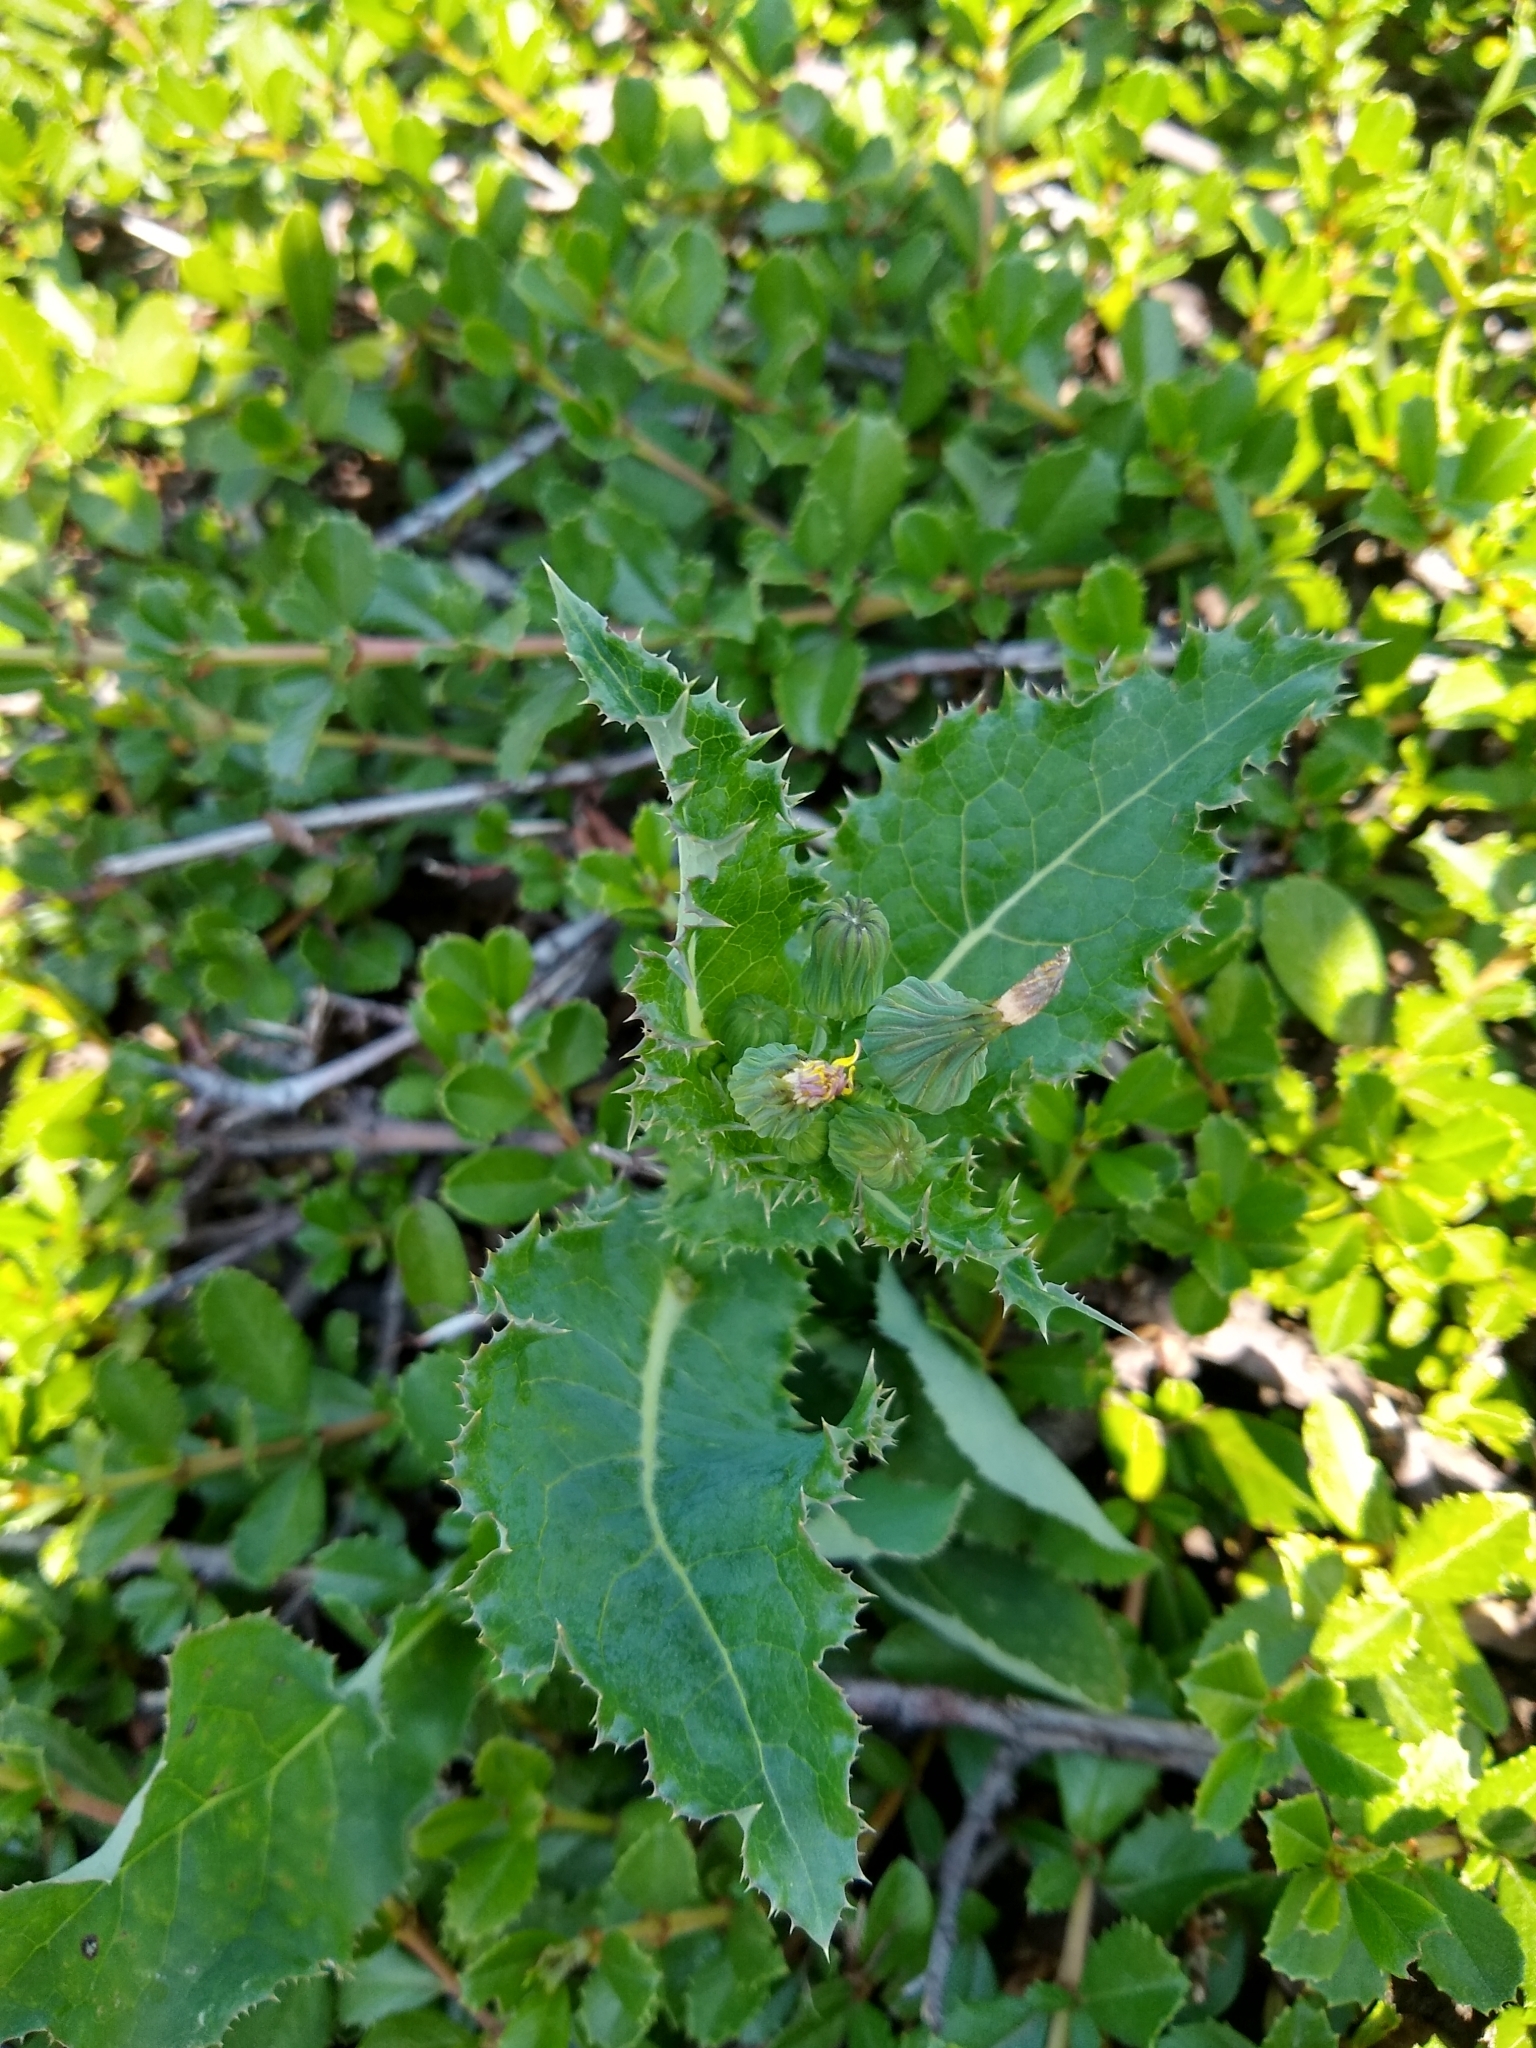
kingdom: Plantae
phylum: Tracheophyta
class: Magnoliopsida
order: Asterales
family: Asteraceae
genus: Sonchus
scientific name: Sonchus asper
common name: Prickly sow-thistle
